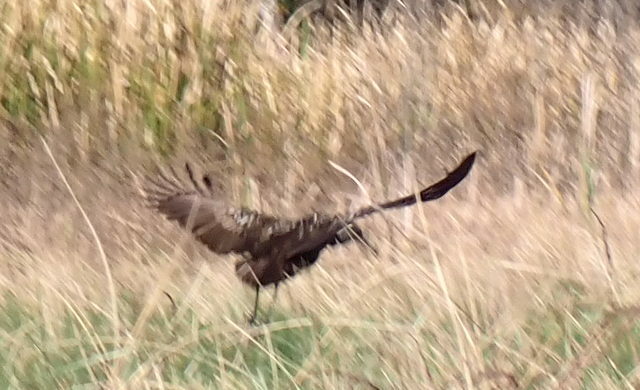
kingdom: Animalia
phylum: Chordata
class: Aves
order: Gruiformes
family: Aramidae
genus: Aramus
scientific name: Aramus guarauna
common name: Limpkin
